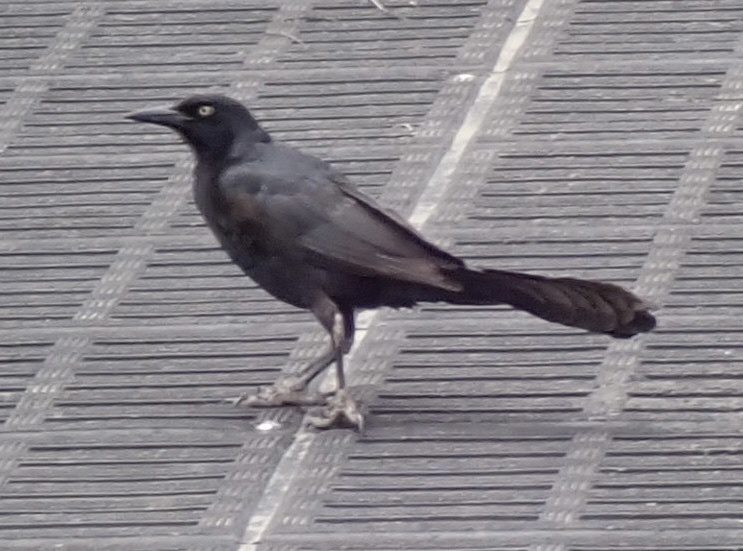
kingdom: Animalia
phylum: Chordata
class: Aves
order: Passeriformes
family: Icteridae
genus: Quiscalus
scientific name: Quiscalus mexicanus
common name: Great-tailed grackle
